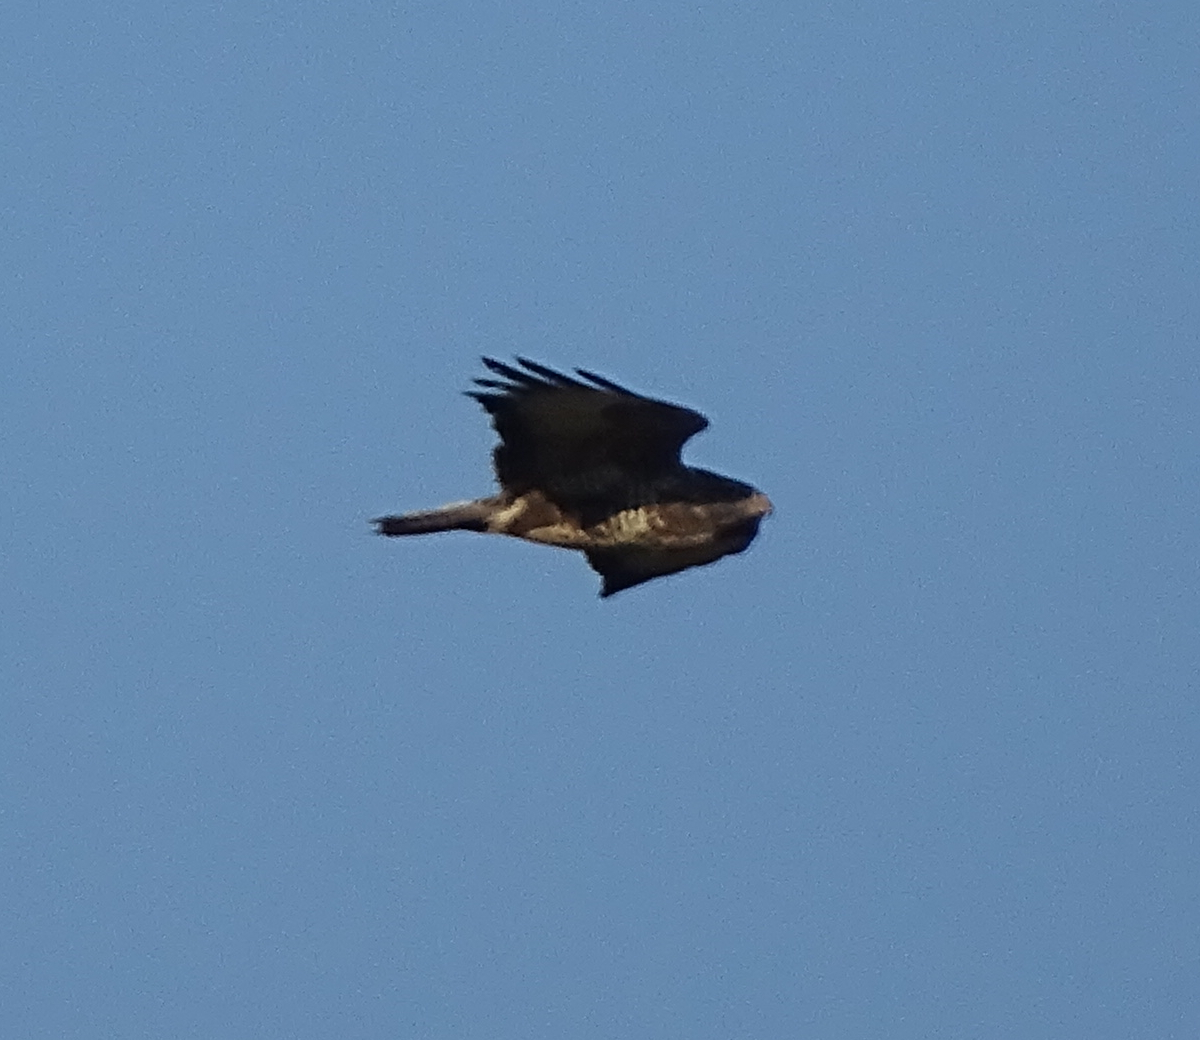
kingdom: Animalia
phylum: Chordata
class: Aves
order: Accipitriformes
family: Accipitridae
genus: Buteo
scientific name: Buteo buteo
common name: Common buzzard
